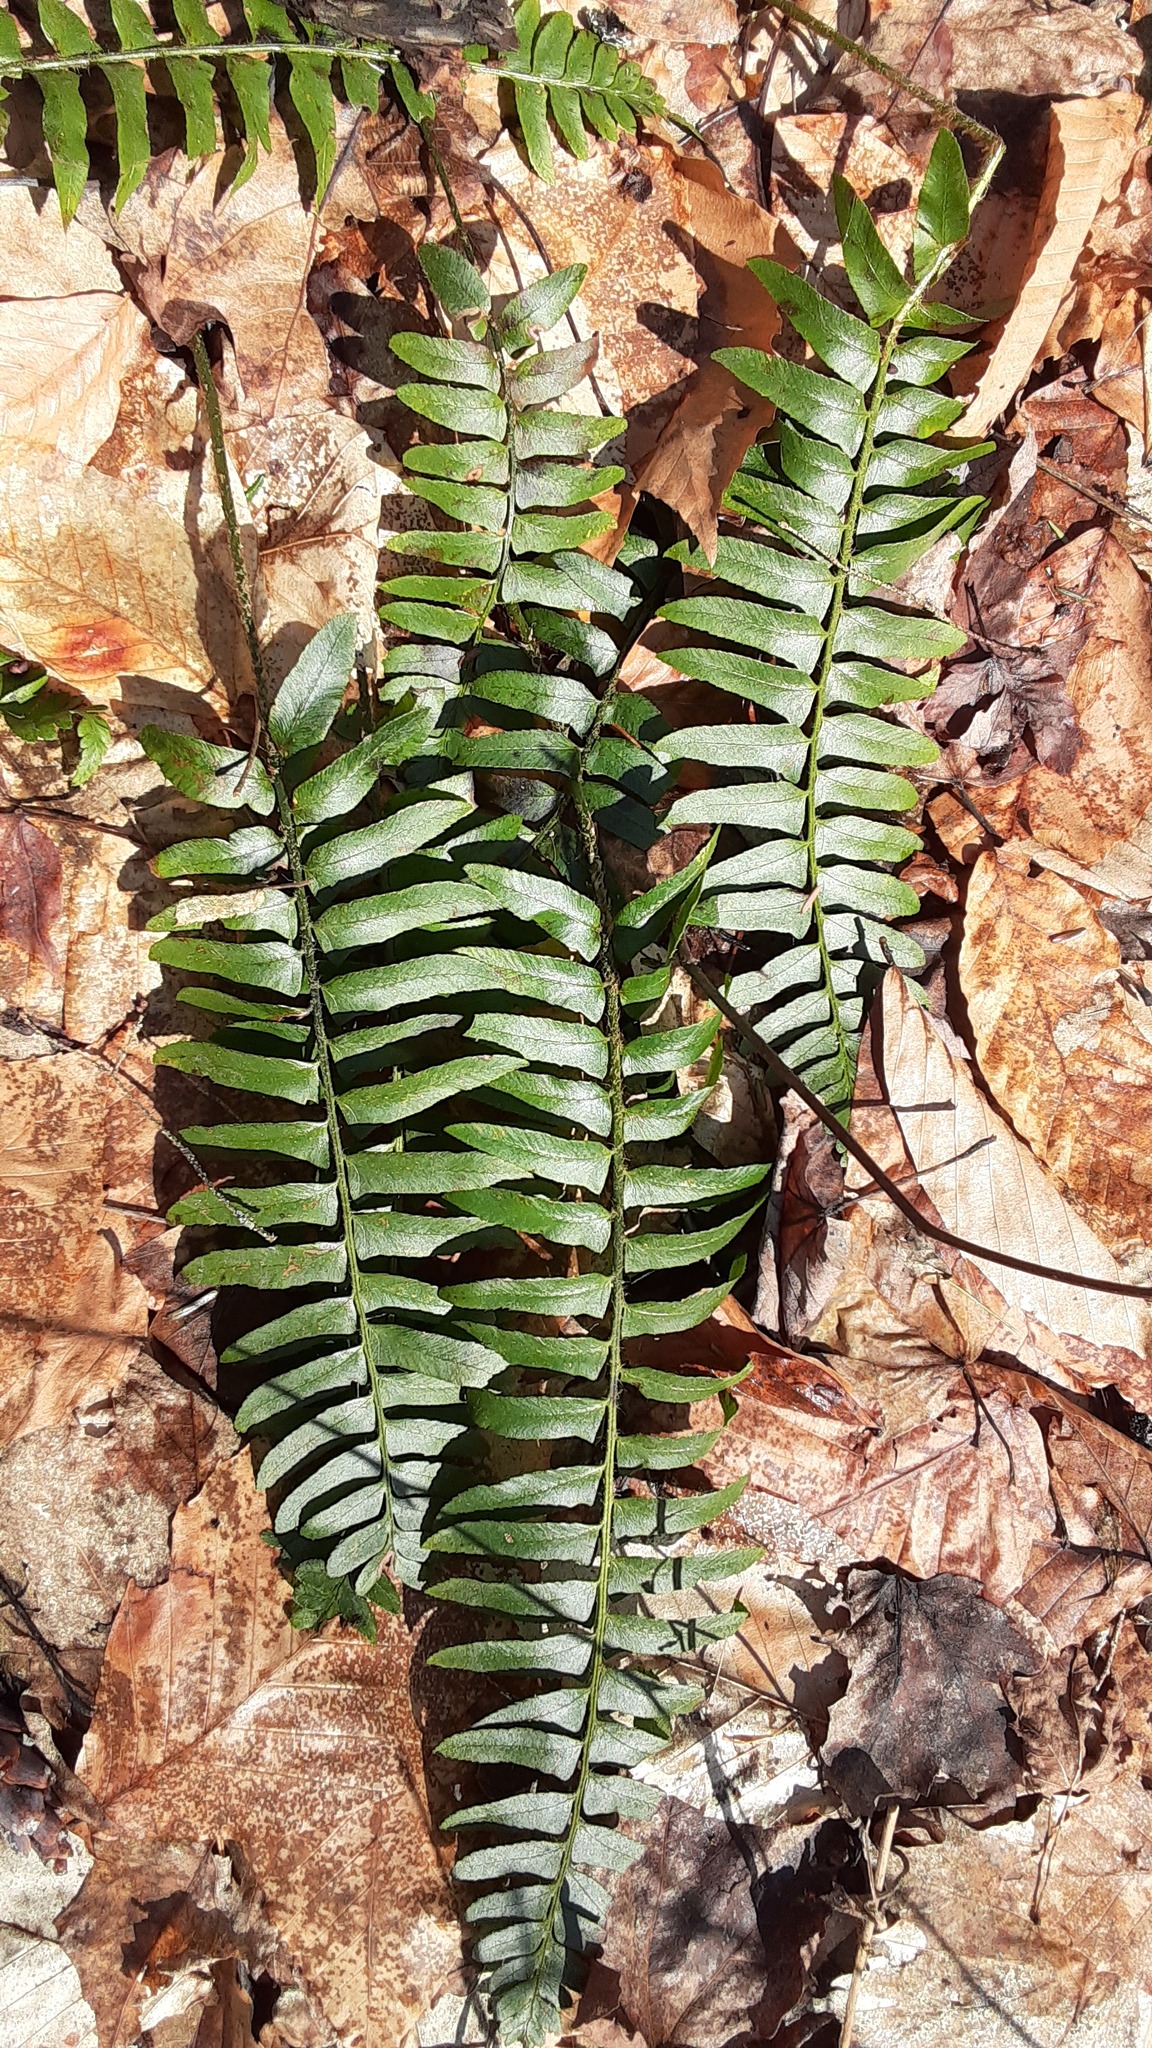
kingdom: Plantae
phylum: Tracheophyta
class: Polypodiopsida
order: Polypodiales
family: Dryopteridaceae
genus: Polystichum
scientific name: Polystichum acrostichoides
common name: Christmas fern
